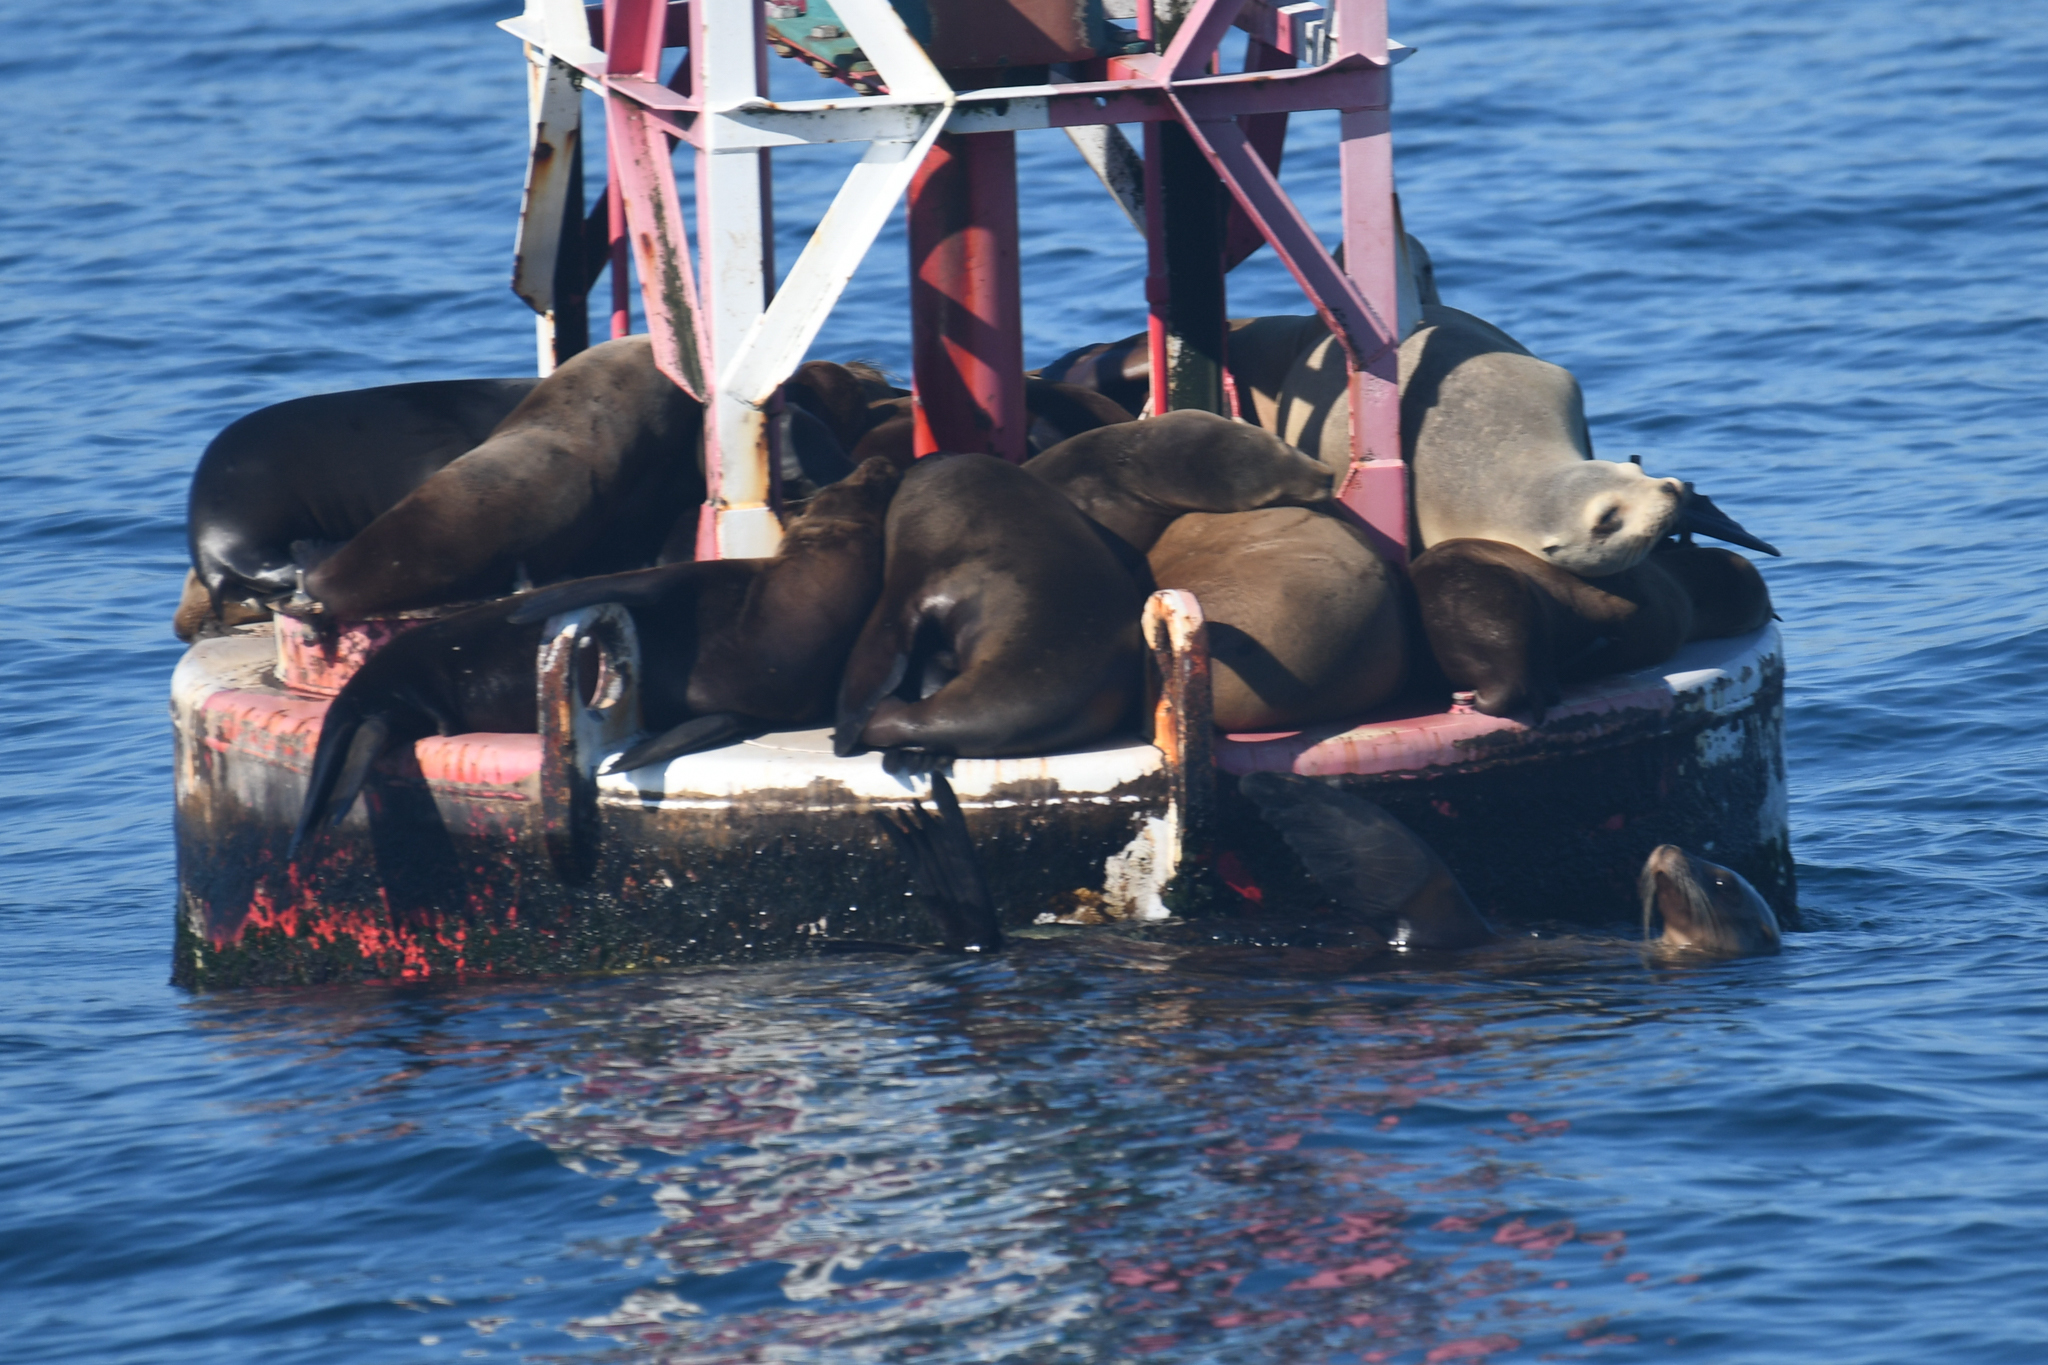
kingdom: Animalia
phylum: Chordata
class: Mammalia
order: Carnivora
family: Otariidae
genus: Zalophus
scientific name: Zalophus californianus
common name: California sea lion
